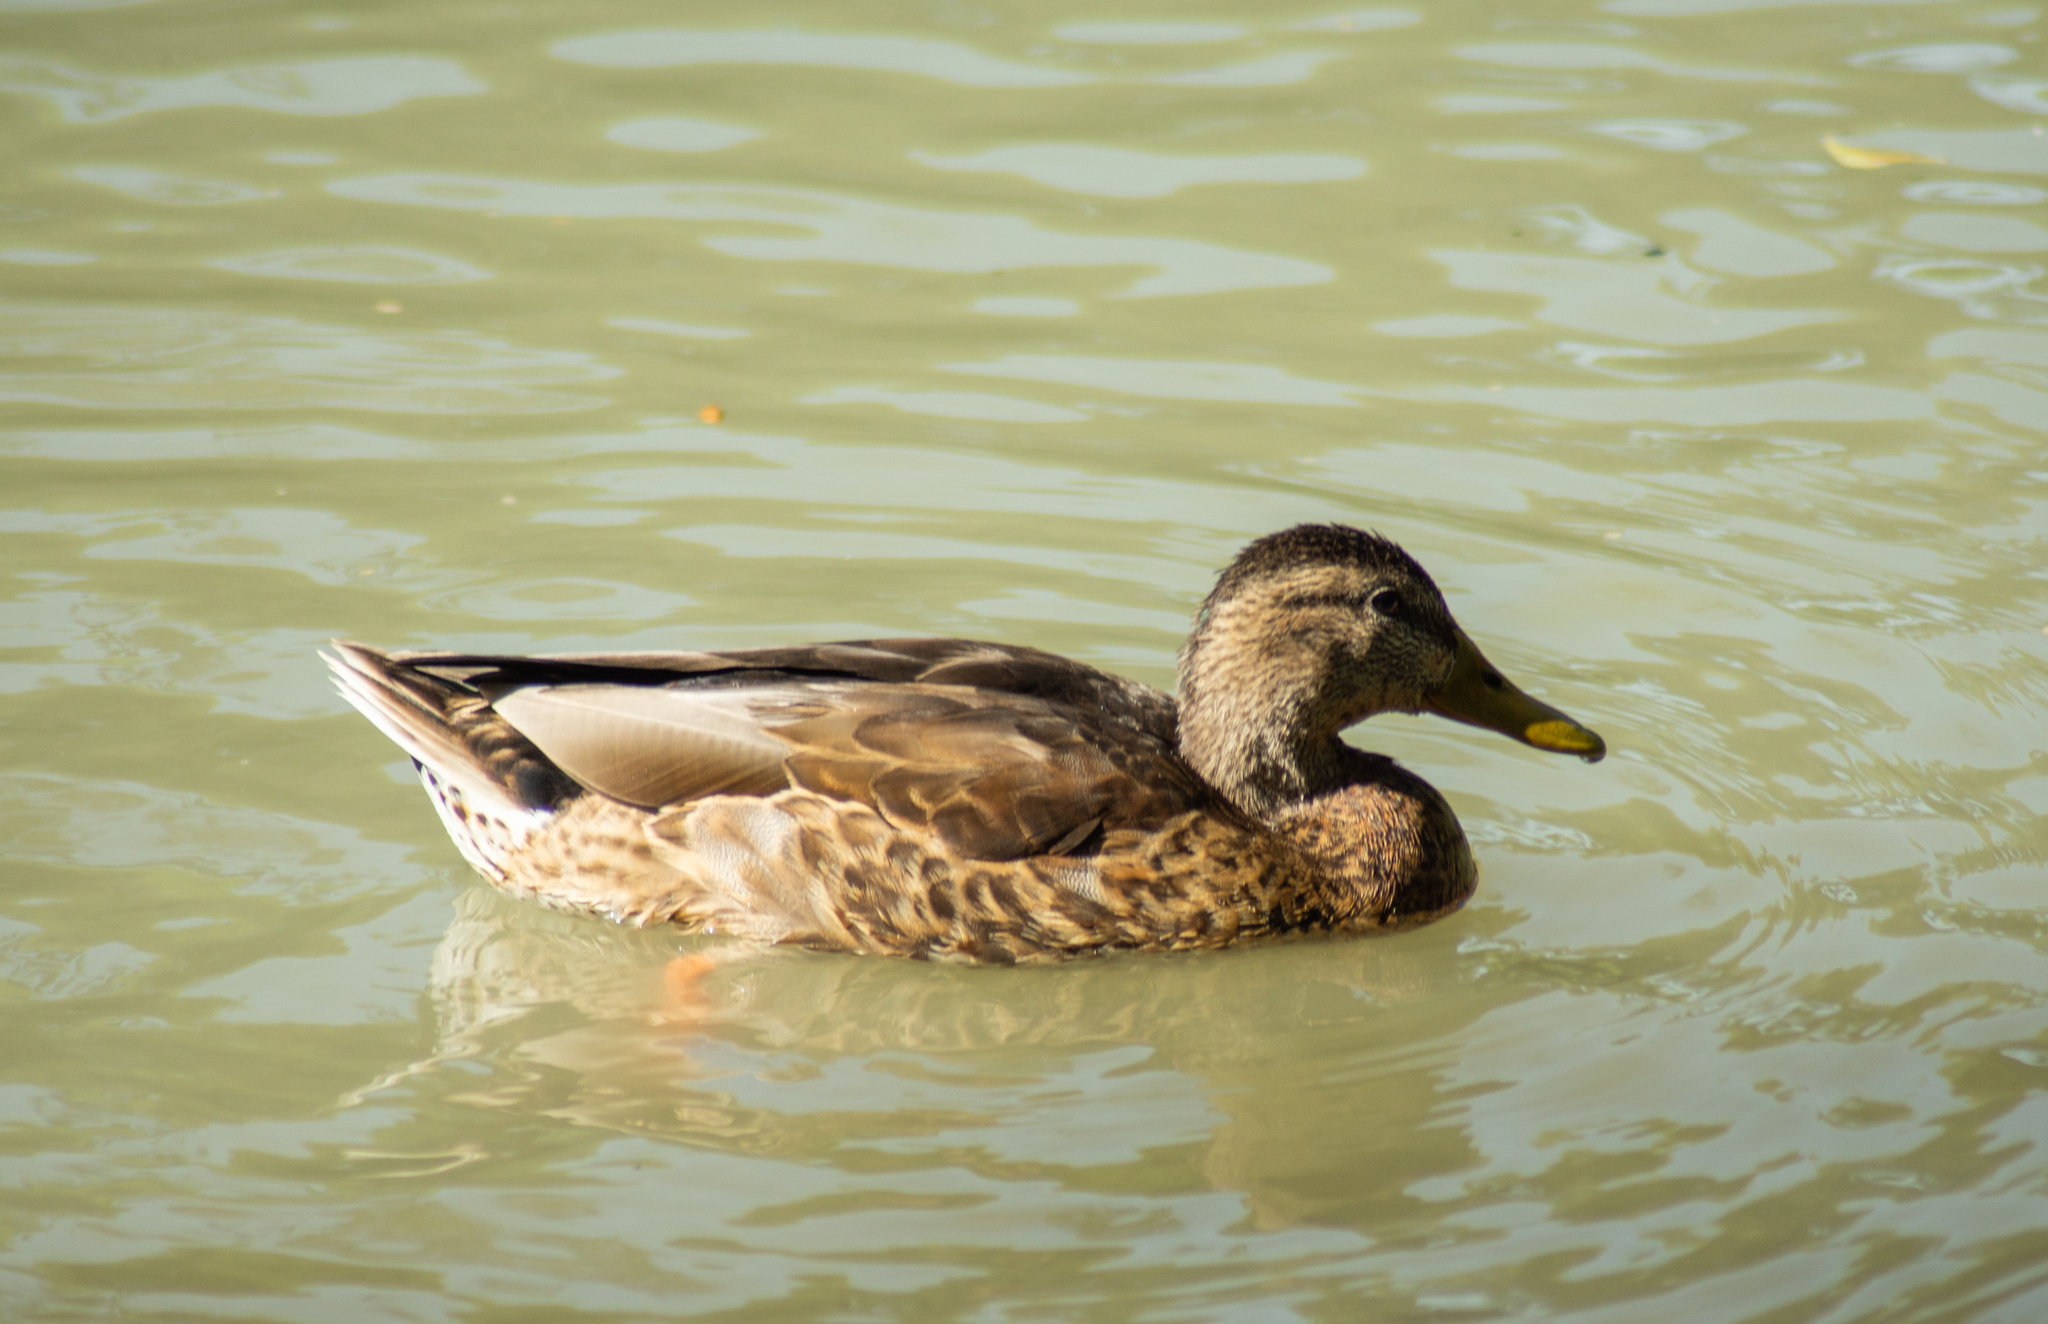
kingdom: Animalia
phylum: Chordata
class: Aves
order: Anseriformes
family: Anatidae
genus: Anas
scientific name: Anas platyrhynchos
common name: Mallard
